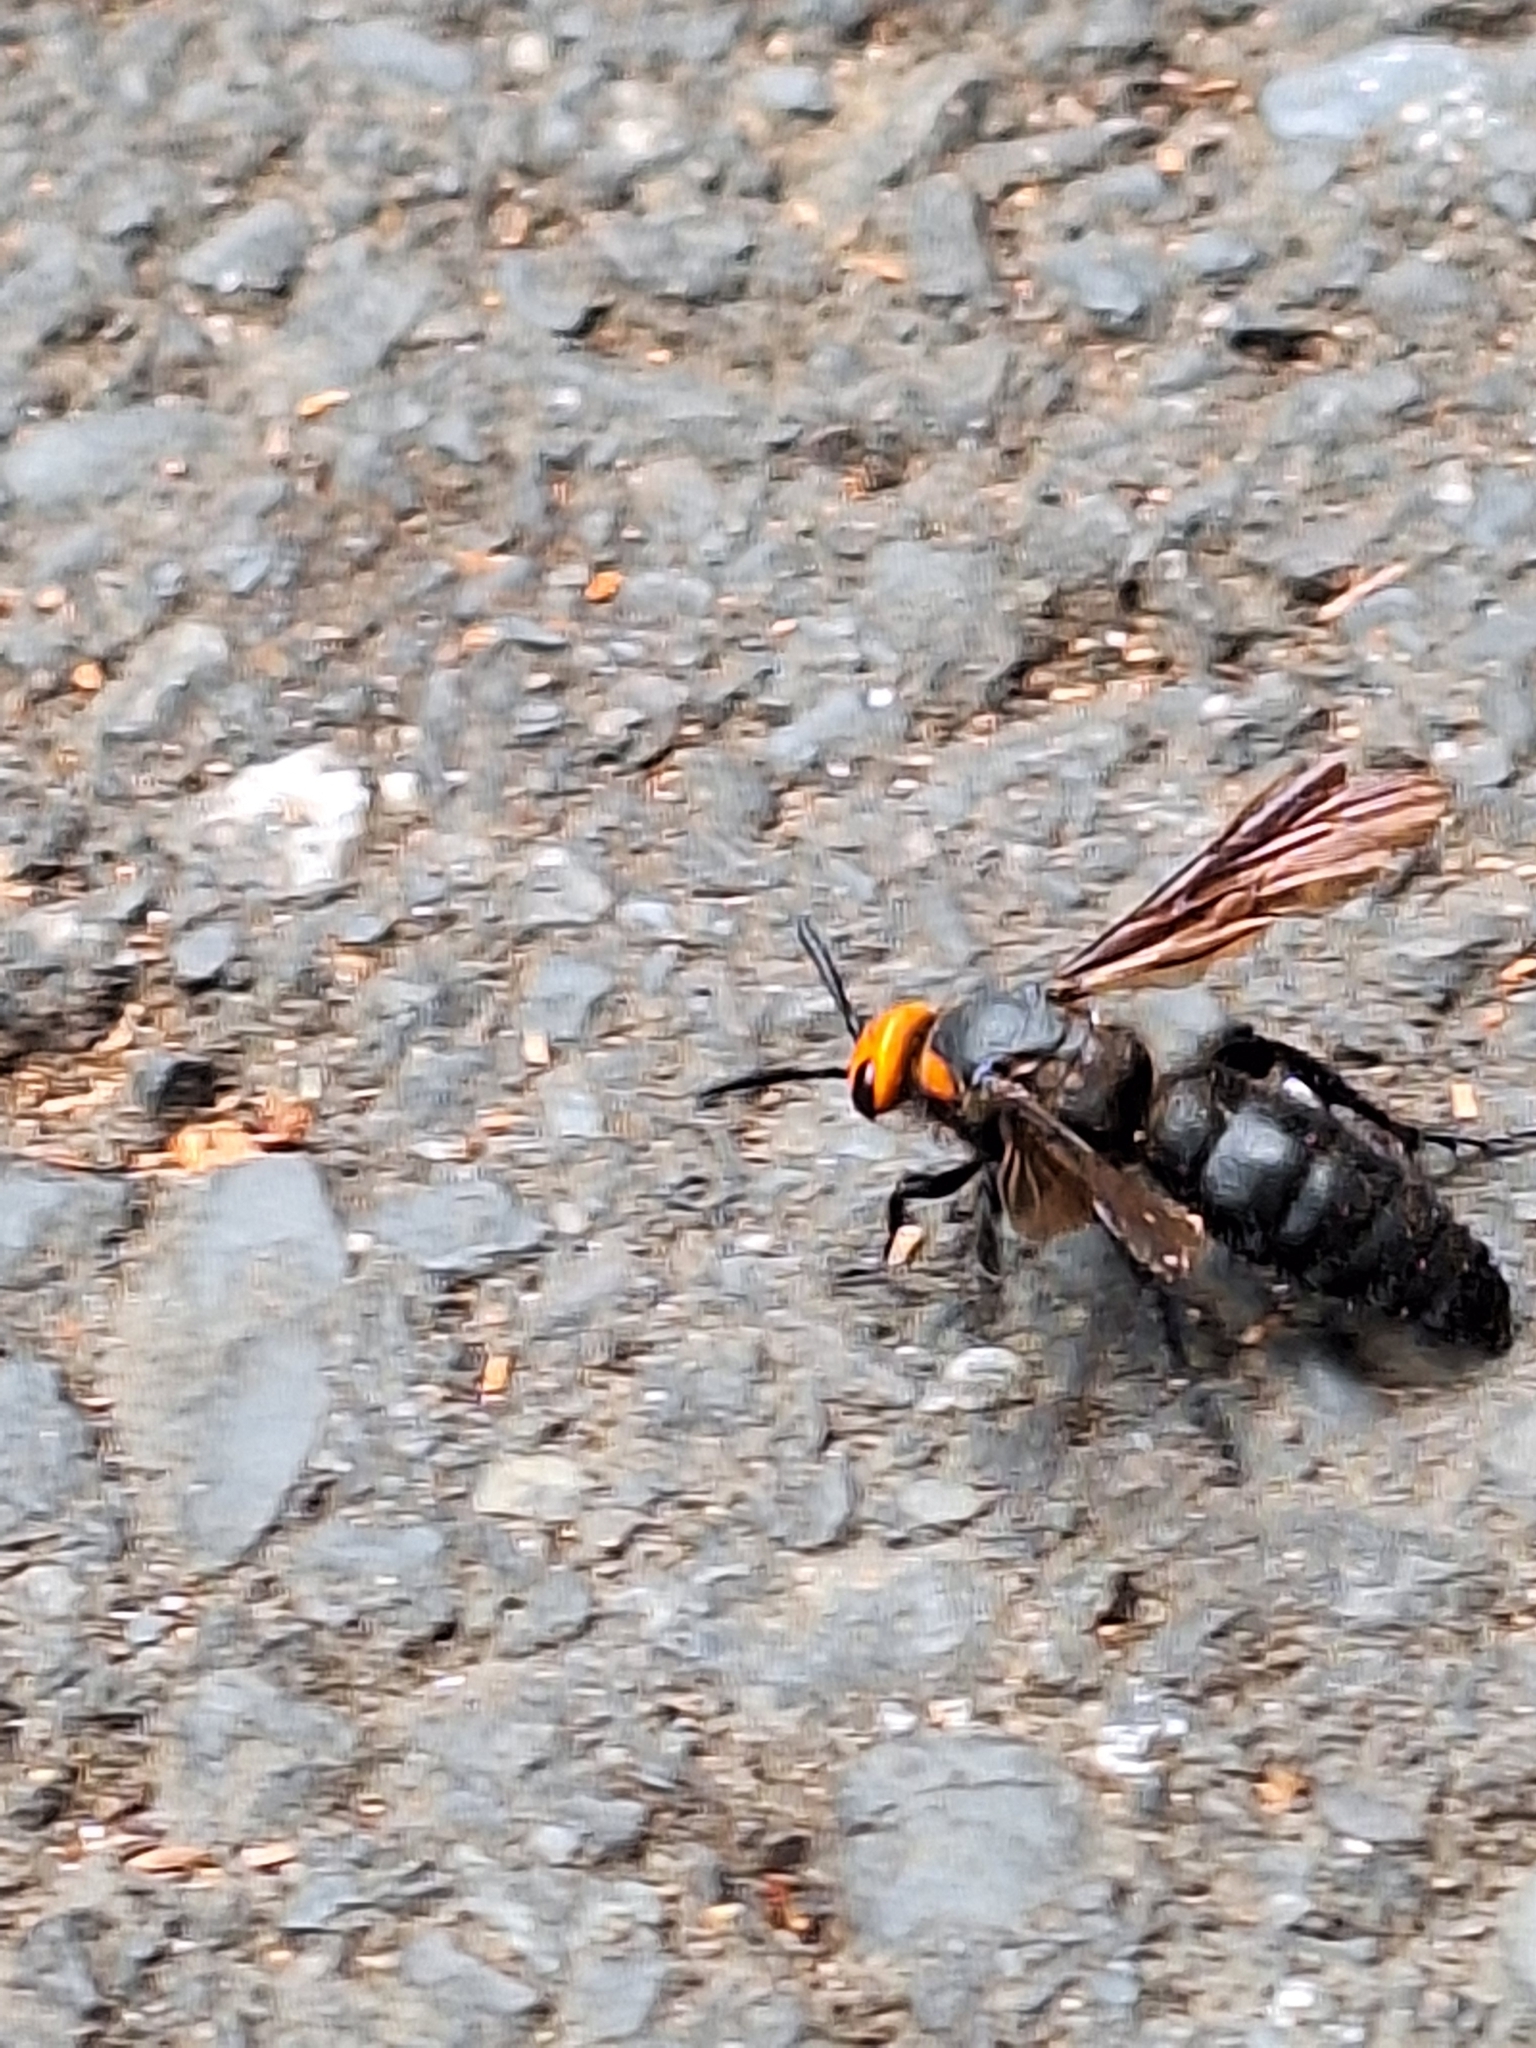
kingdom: Animalia
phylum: Arthropoda
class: Insecta
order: Hymenoptera
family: Scoliidae
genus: Scolia
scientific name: Scolia clypeata
